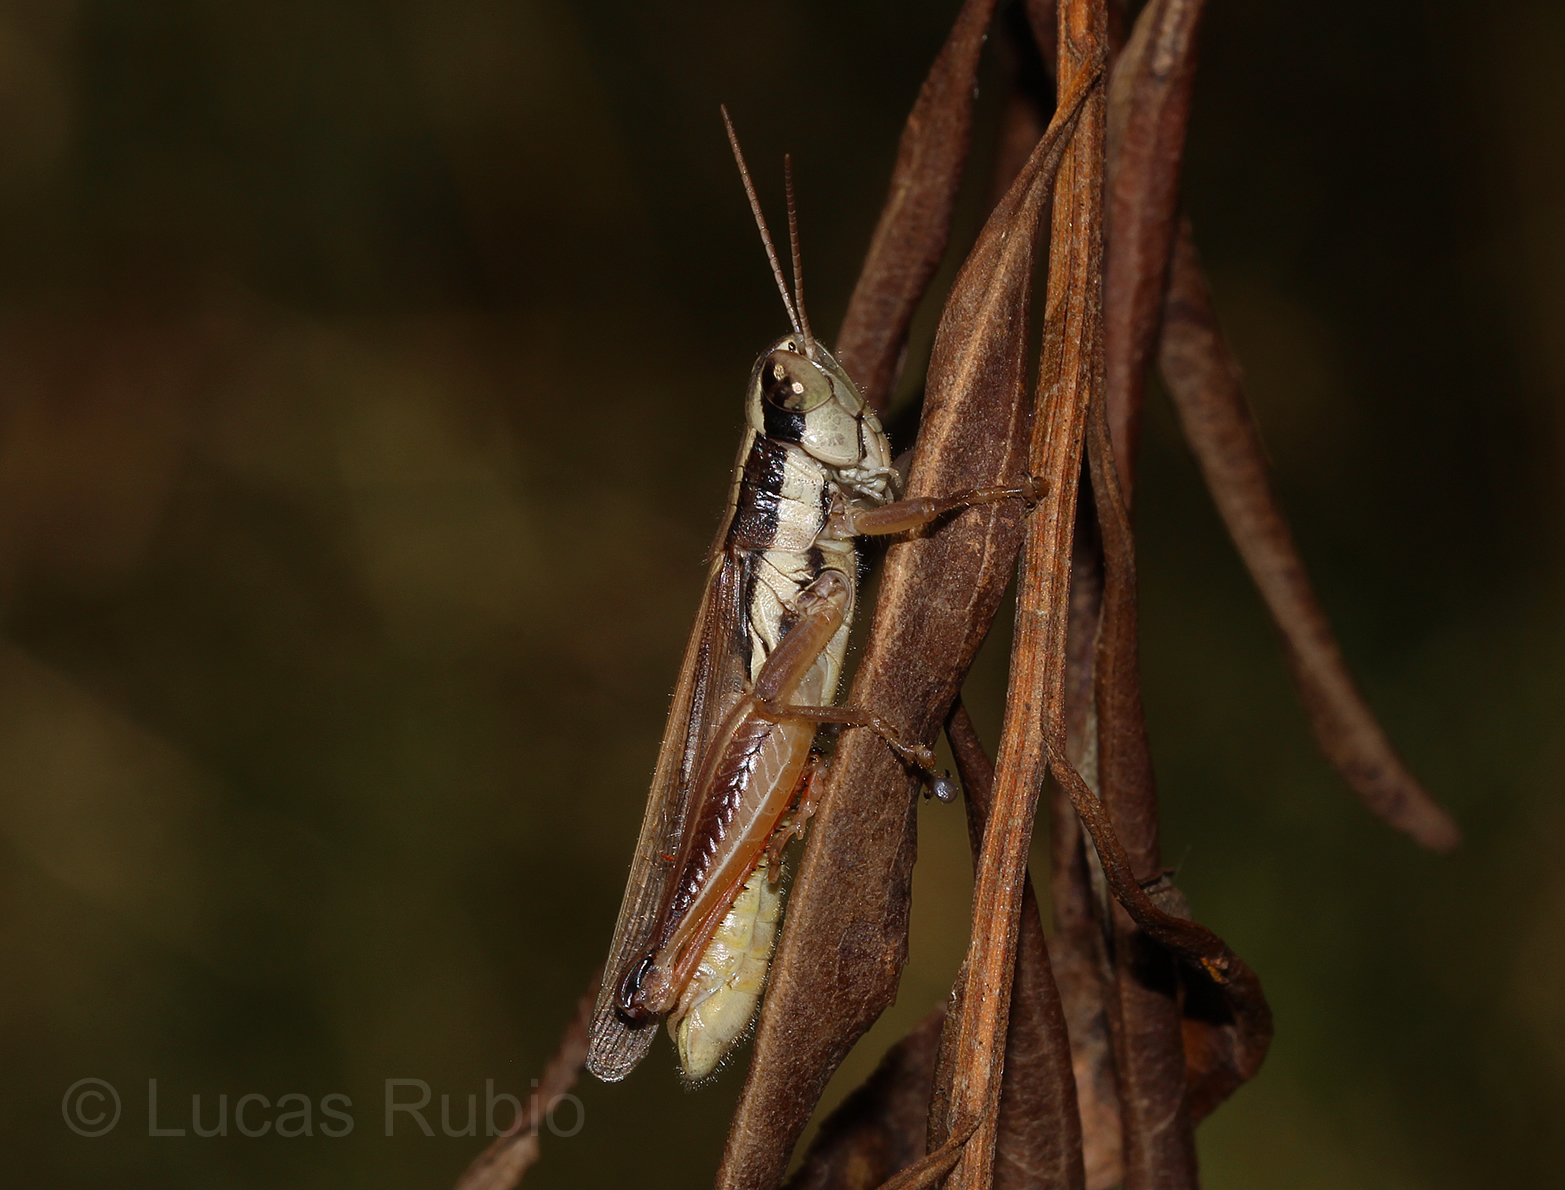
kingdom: Animalia
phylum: Arthropoda
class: Insecta
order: Orthoptera
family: Acrididae
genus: Scotussa
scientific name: Scotussa lemniscata
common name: Slender orange-legged grasshopper
